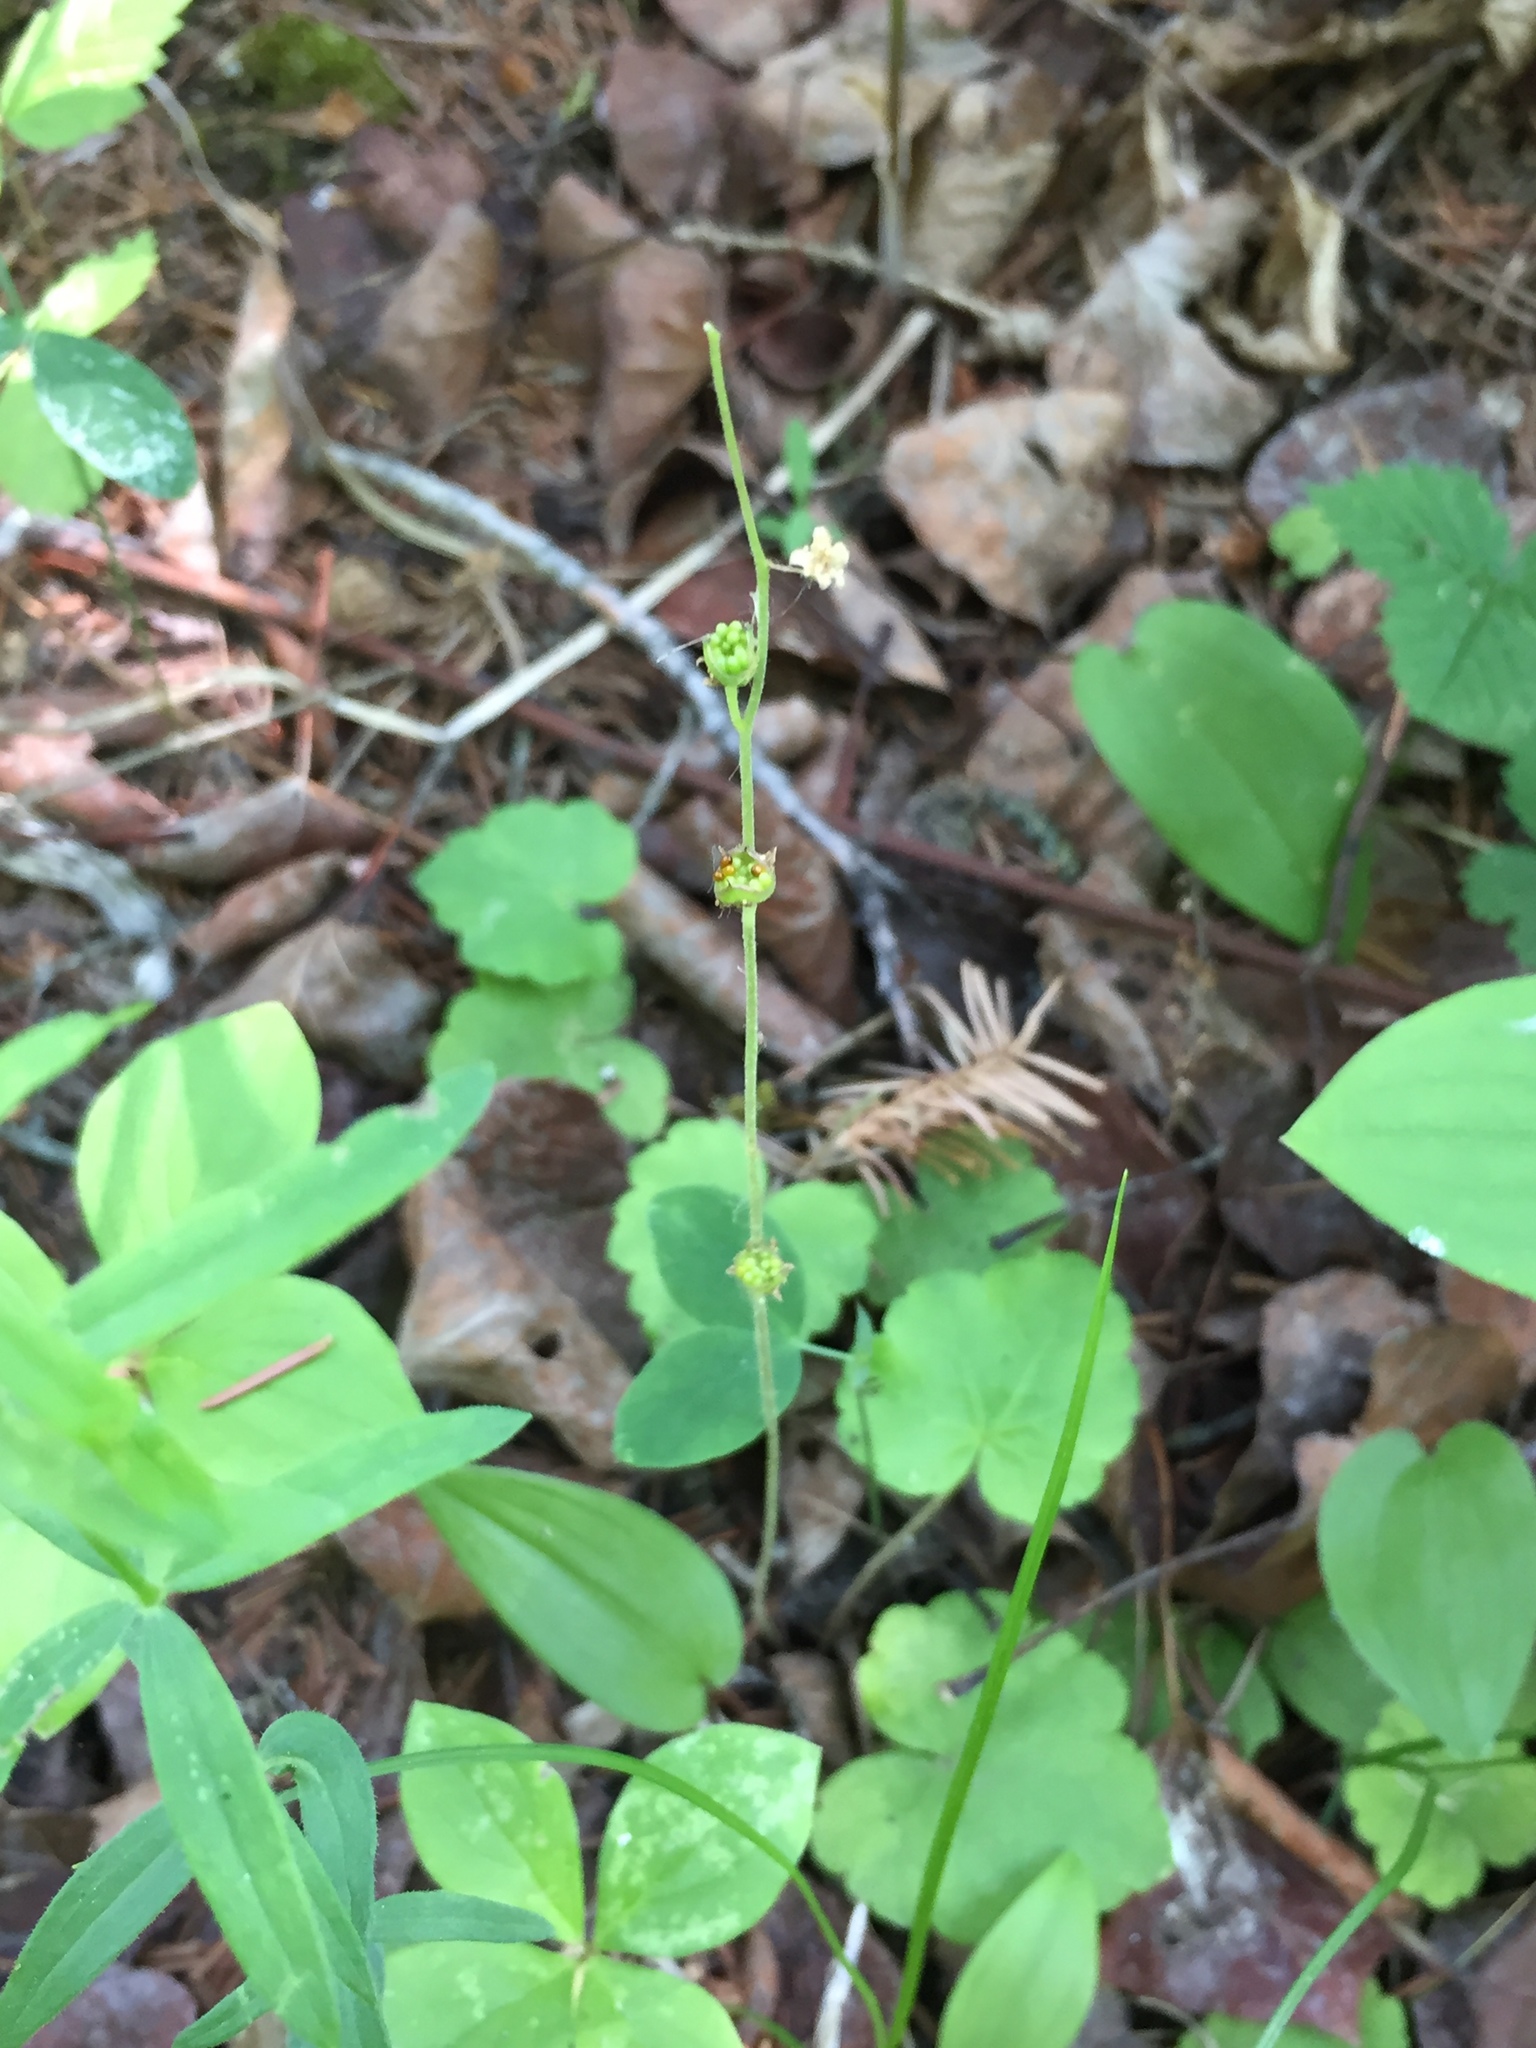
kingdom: Plantae
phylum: Tracheophyta
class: Magnoliopsida
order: Saxifragales
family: Saxifragaceae
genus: Mitella
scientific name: Mitella nuda
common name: Bare-stemmed bishop's-cap
